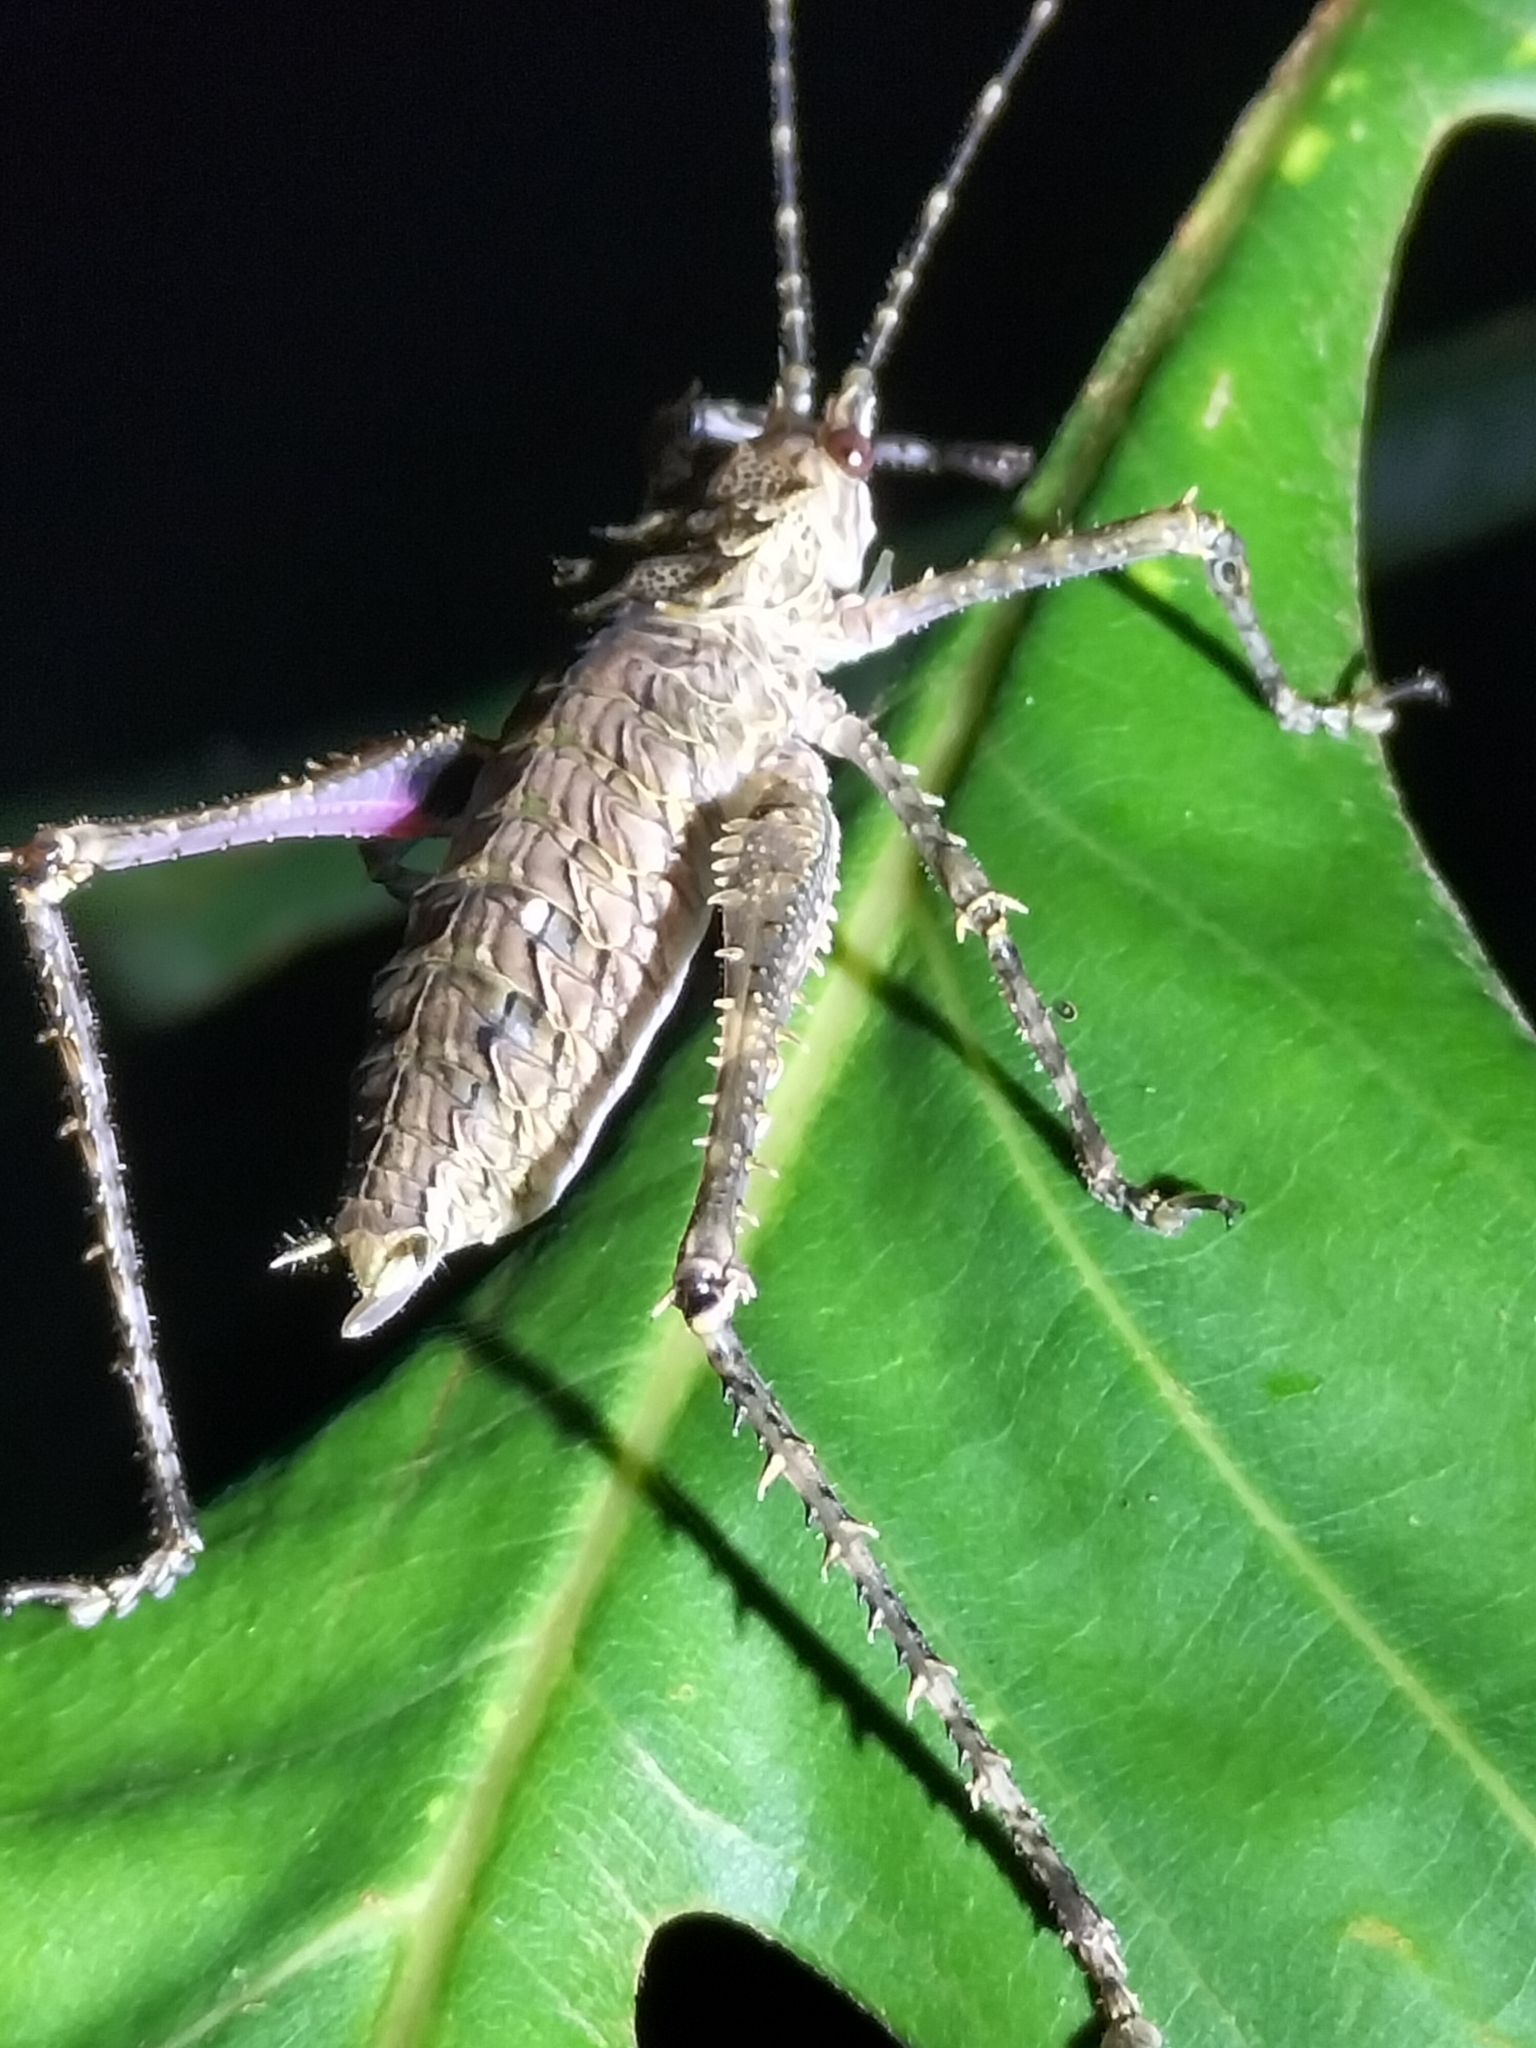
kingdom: Animalia
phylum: Arthropoda
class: Insecta
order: Orthoptera
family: Tettigoniidae
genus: Phricta
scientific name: Phricta spinosa
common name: Giant spiny forest katydid
